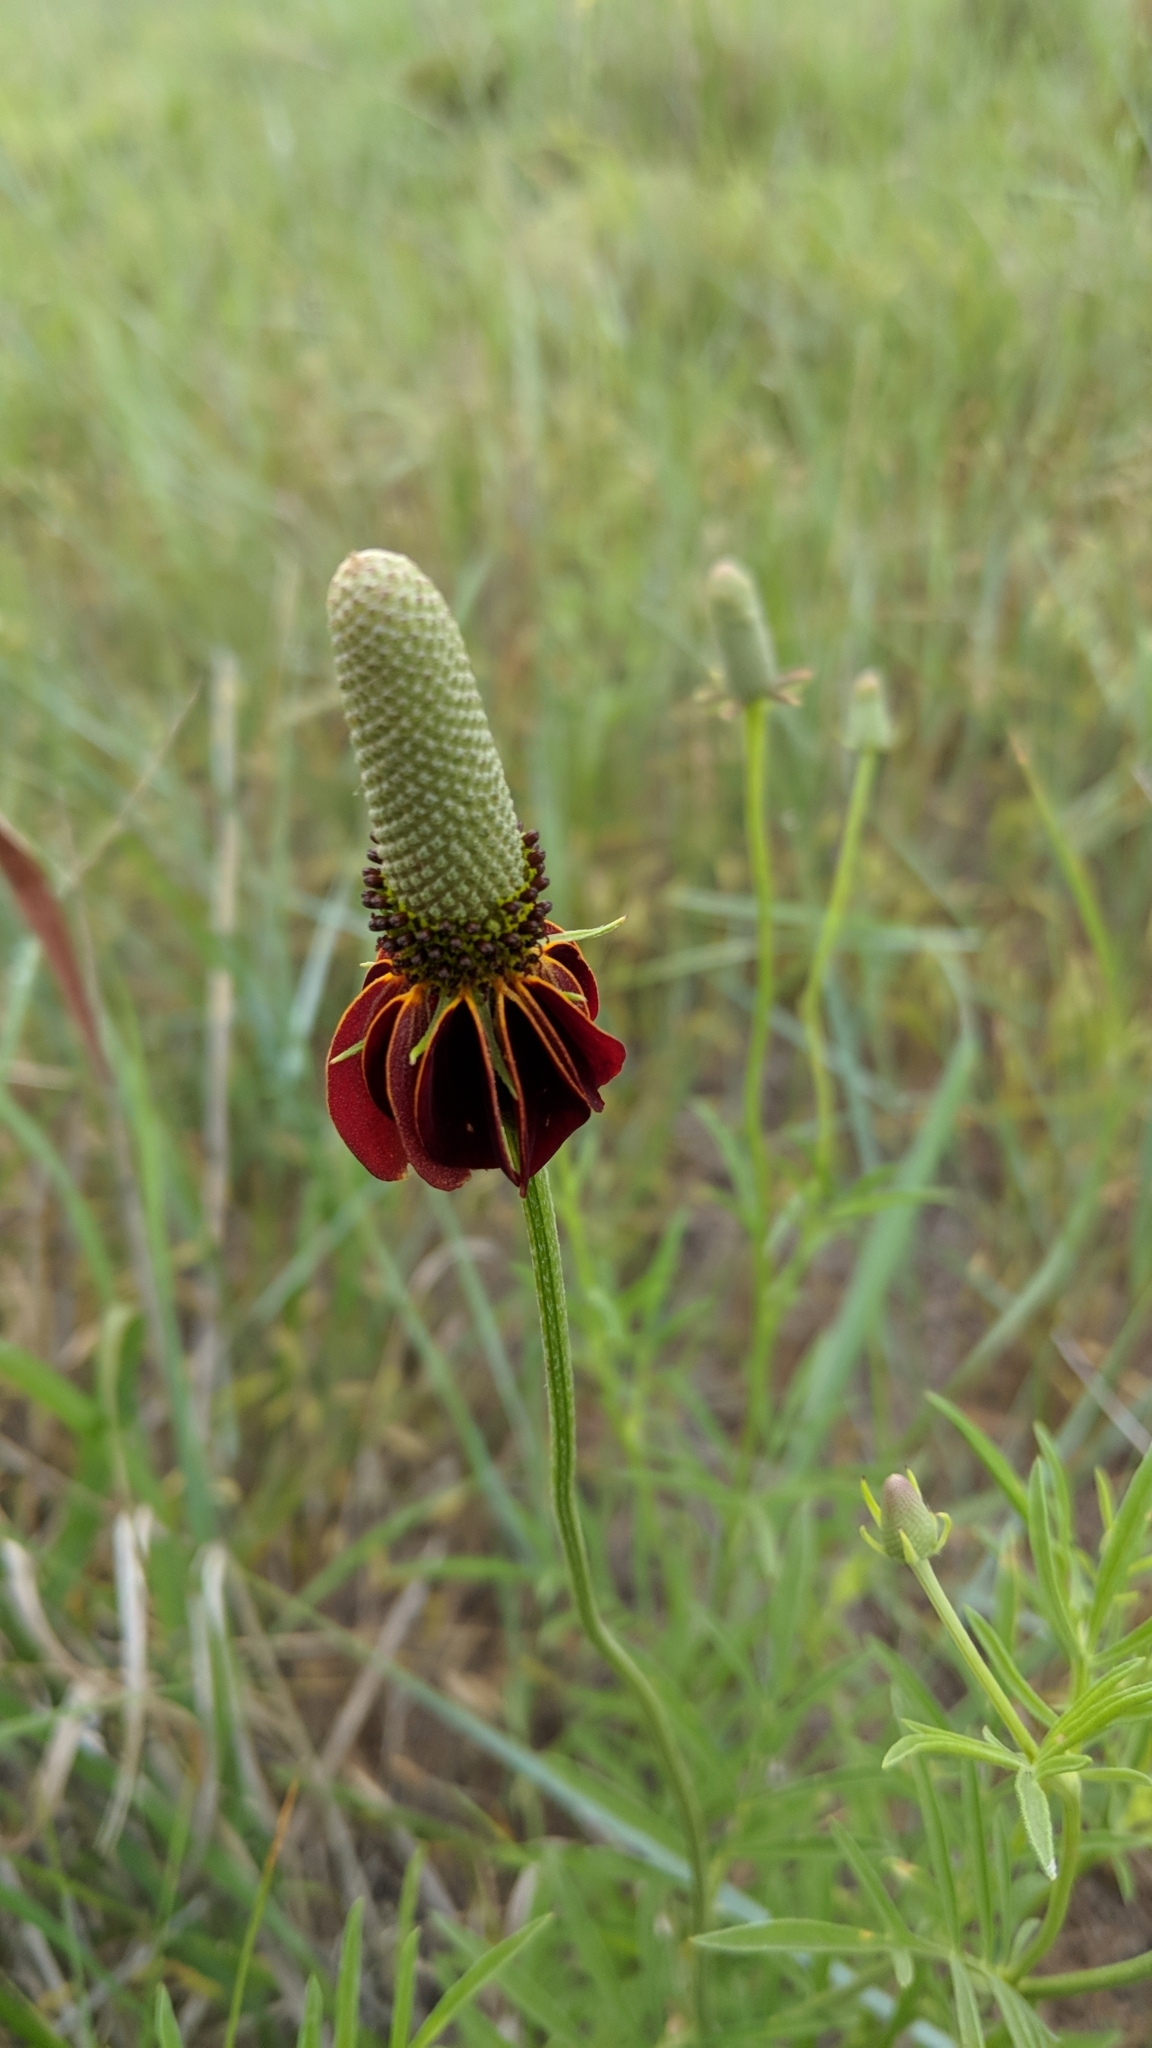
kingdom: Plantae
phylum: Tracheophyta
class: Magnoliopsida
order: Asterales
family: Asteraceae
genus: Ratibida
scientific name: Ratibida columnifera
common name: Prairie coneflower
